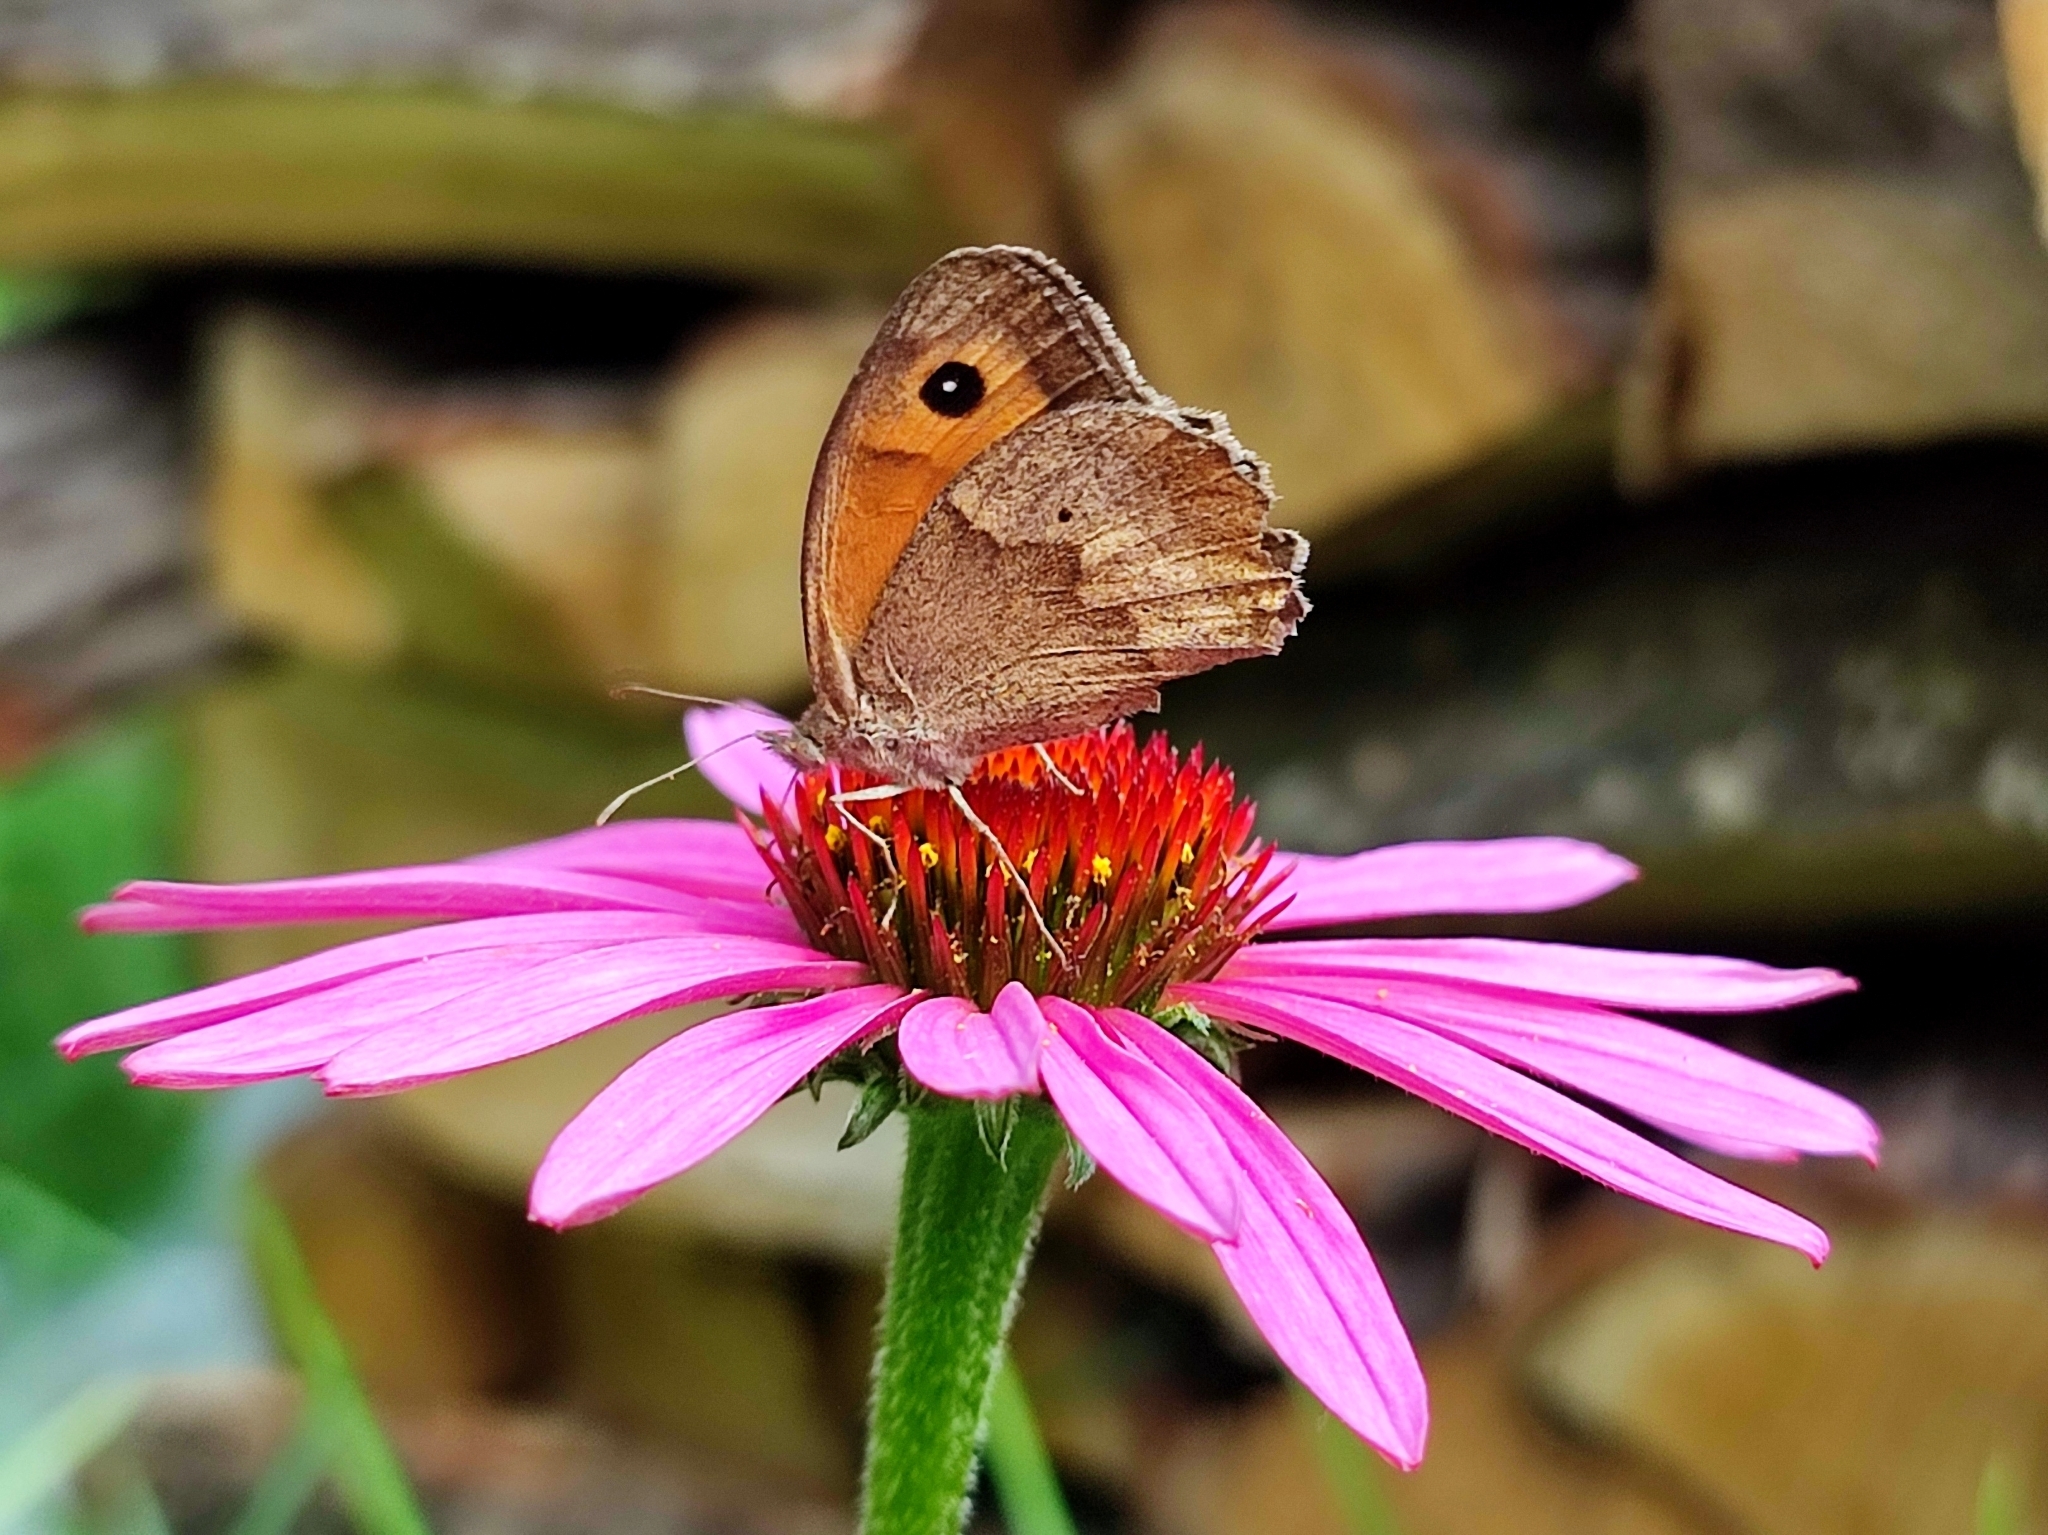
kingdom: Animalia
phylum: Arthropoda
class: Insecta
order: Lepidoptera
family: Nymphalidae
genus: Maniola
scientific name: Maniola jurtina
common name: Meadow brown
